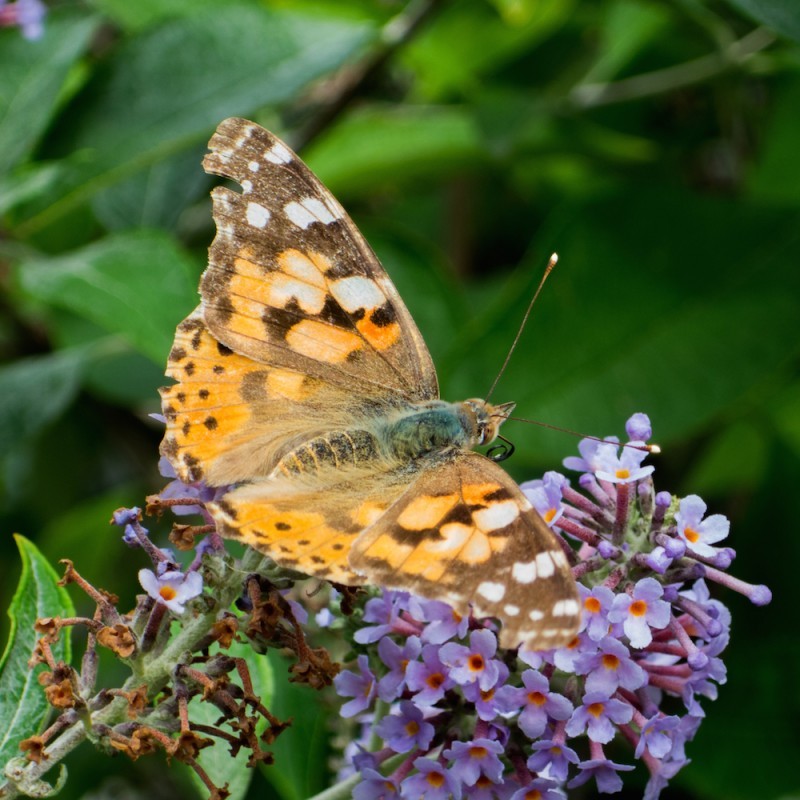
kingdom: Animalia
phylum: Arthropoda
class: Insecta
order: Lepidoptera
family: Nymphalidae
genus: Vanessa
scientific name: Vanessa cardui
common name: Painted lady
